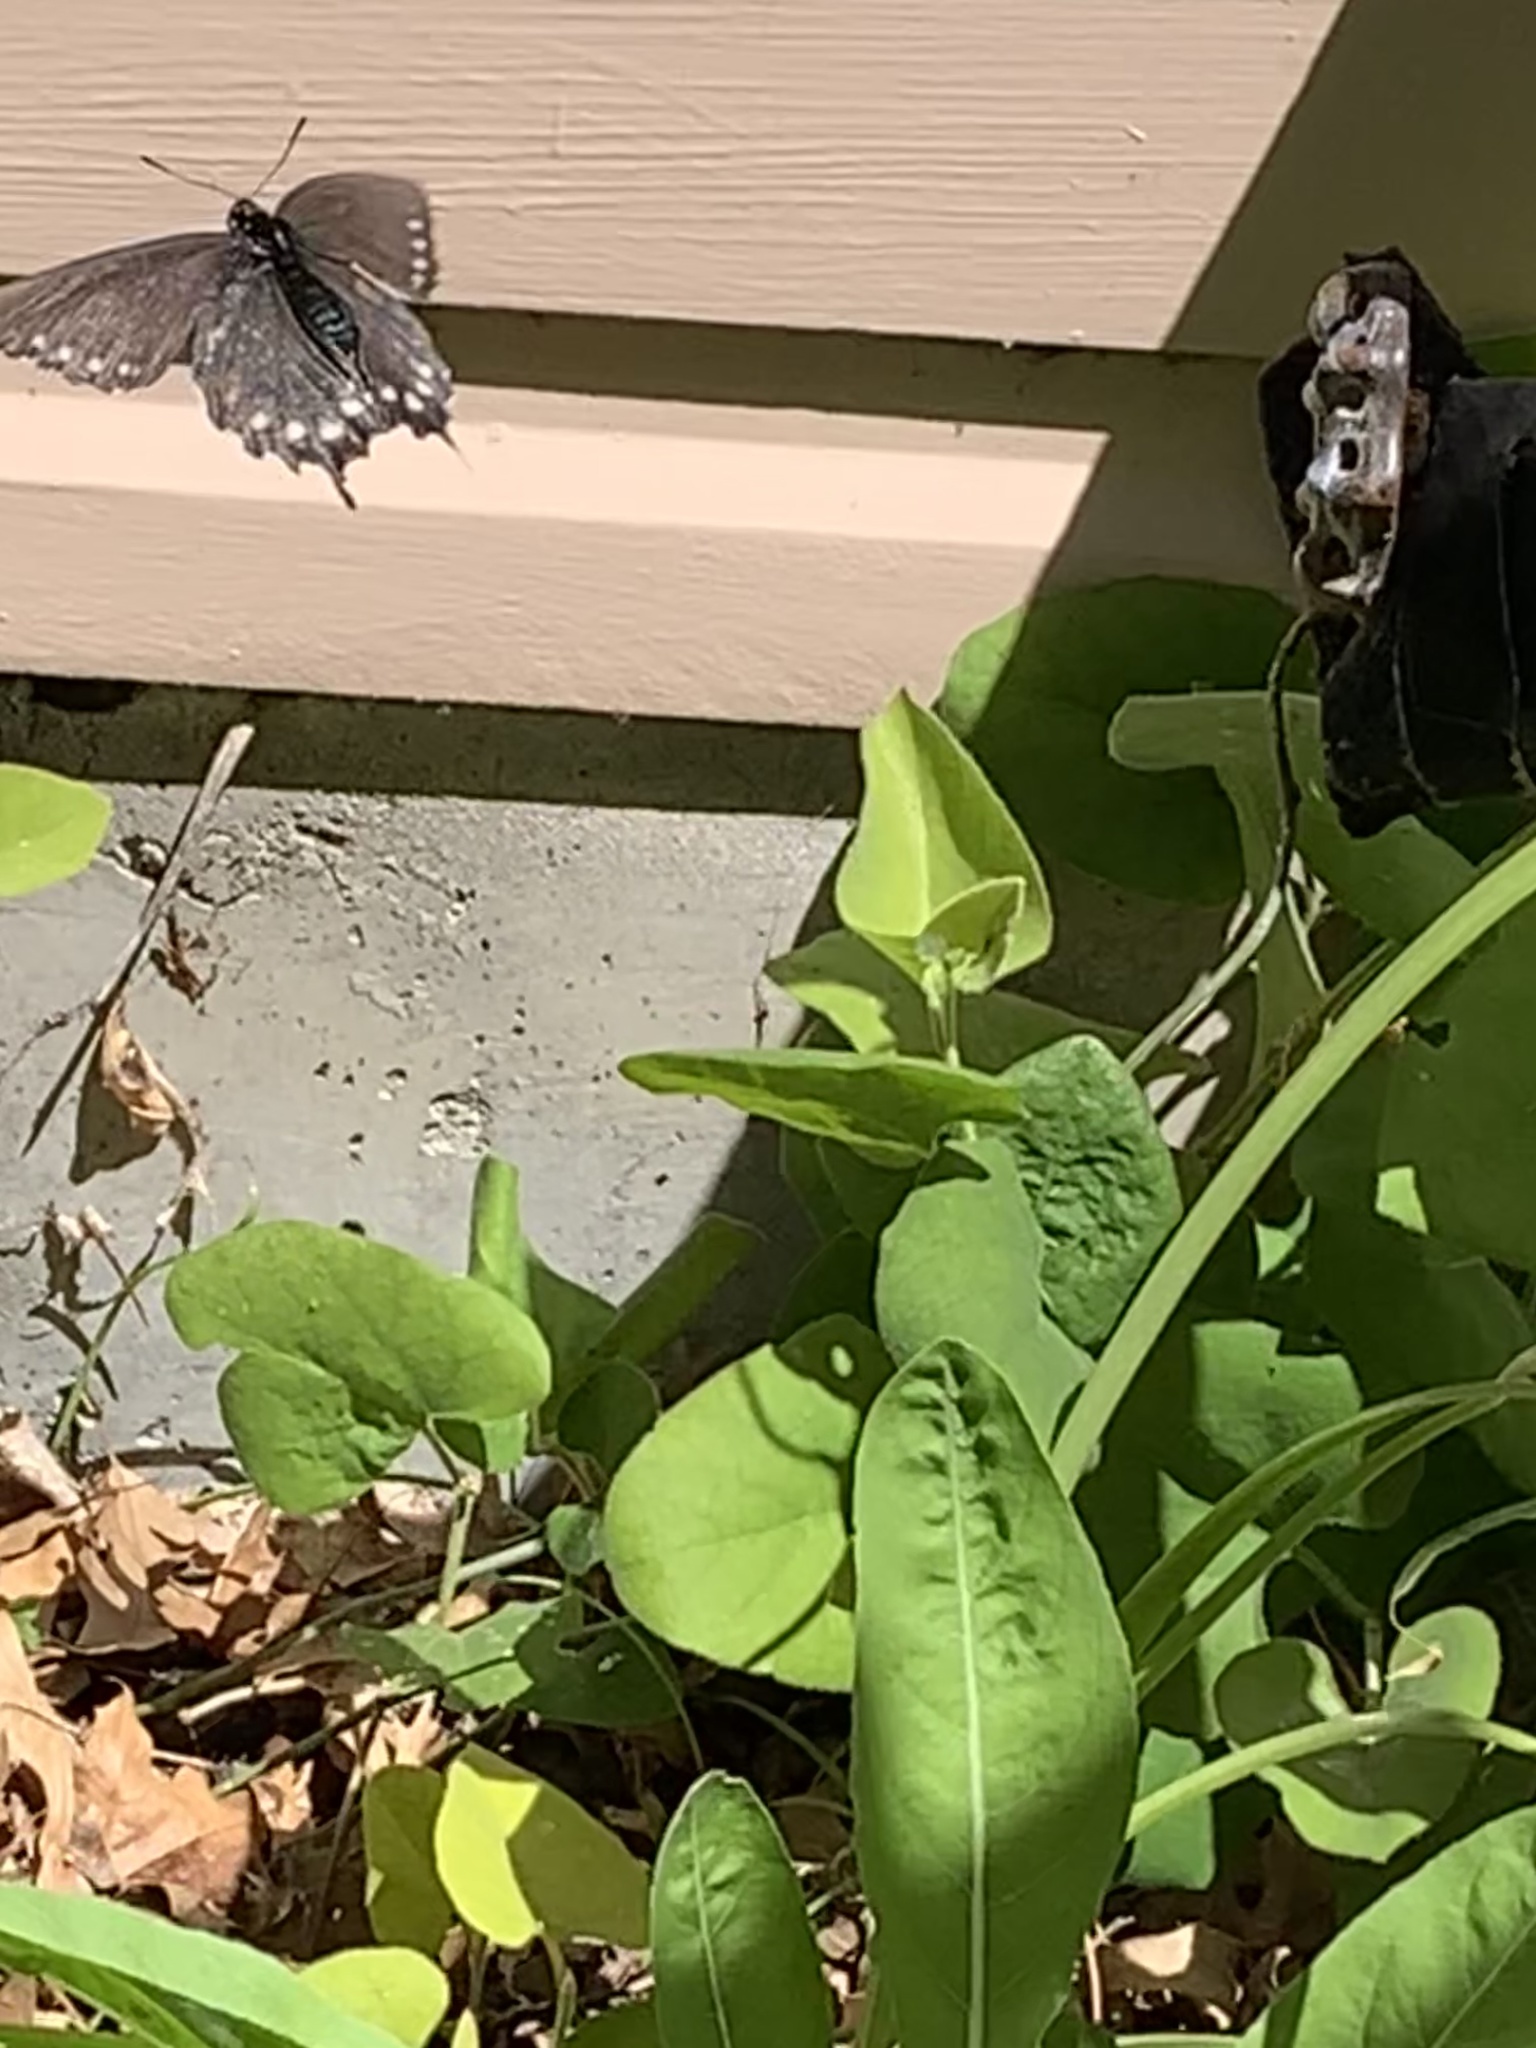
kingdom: Animalia
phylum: Arthropoda
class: Insecta
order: Lepidoptera
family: Papilionidae
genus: Battus
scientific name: Battus philenor
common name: Pipevine swallowtail
